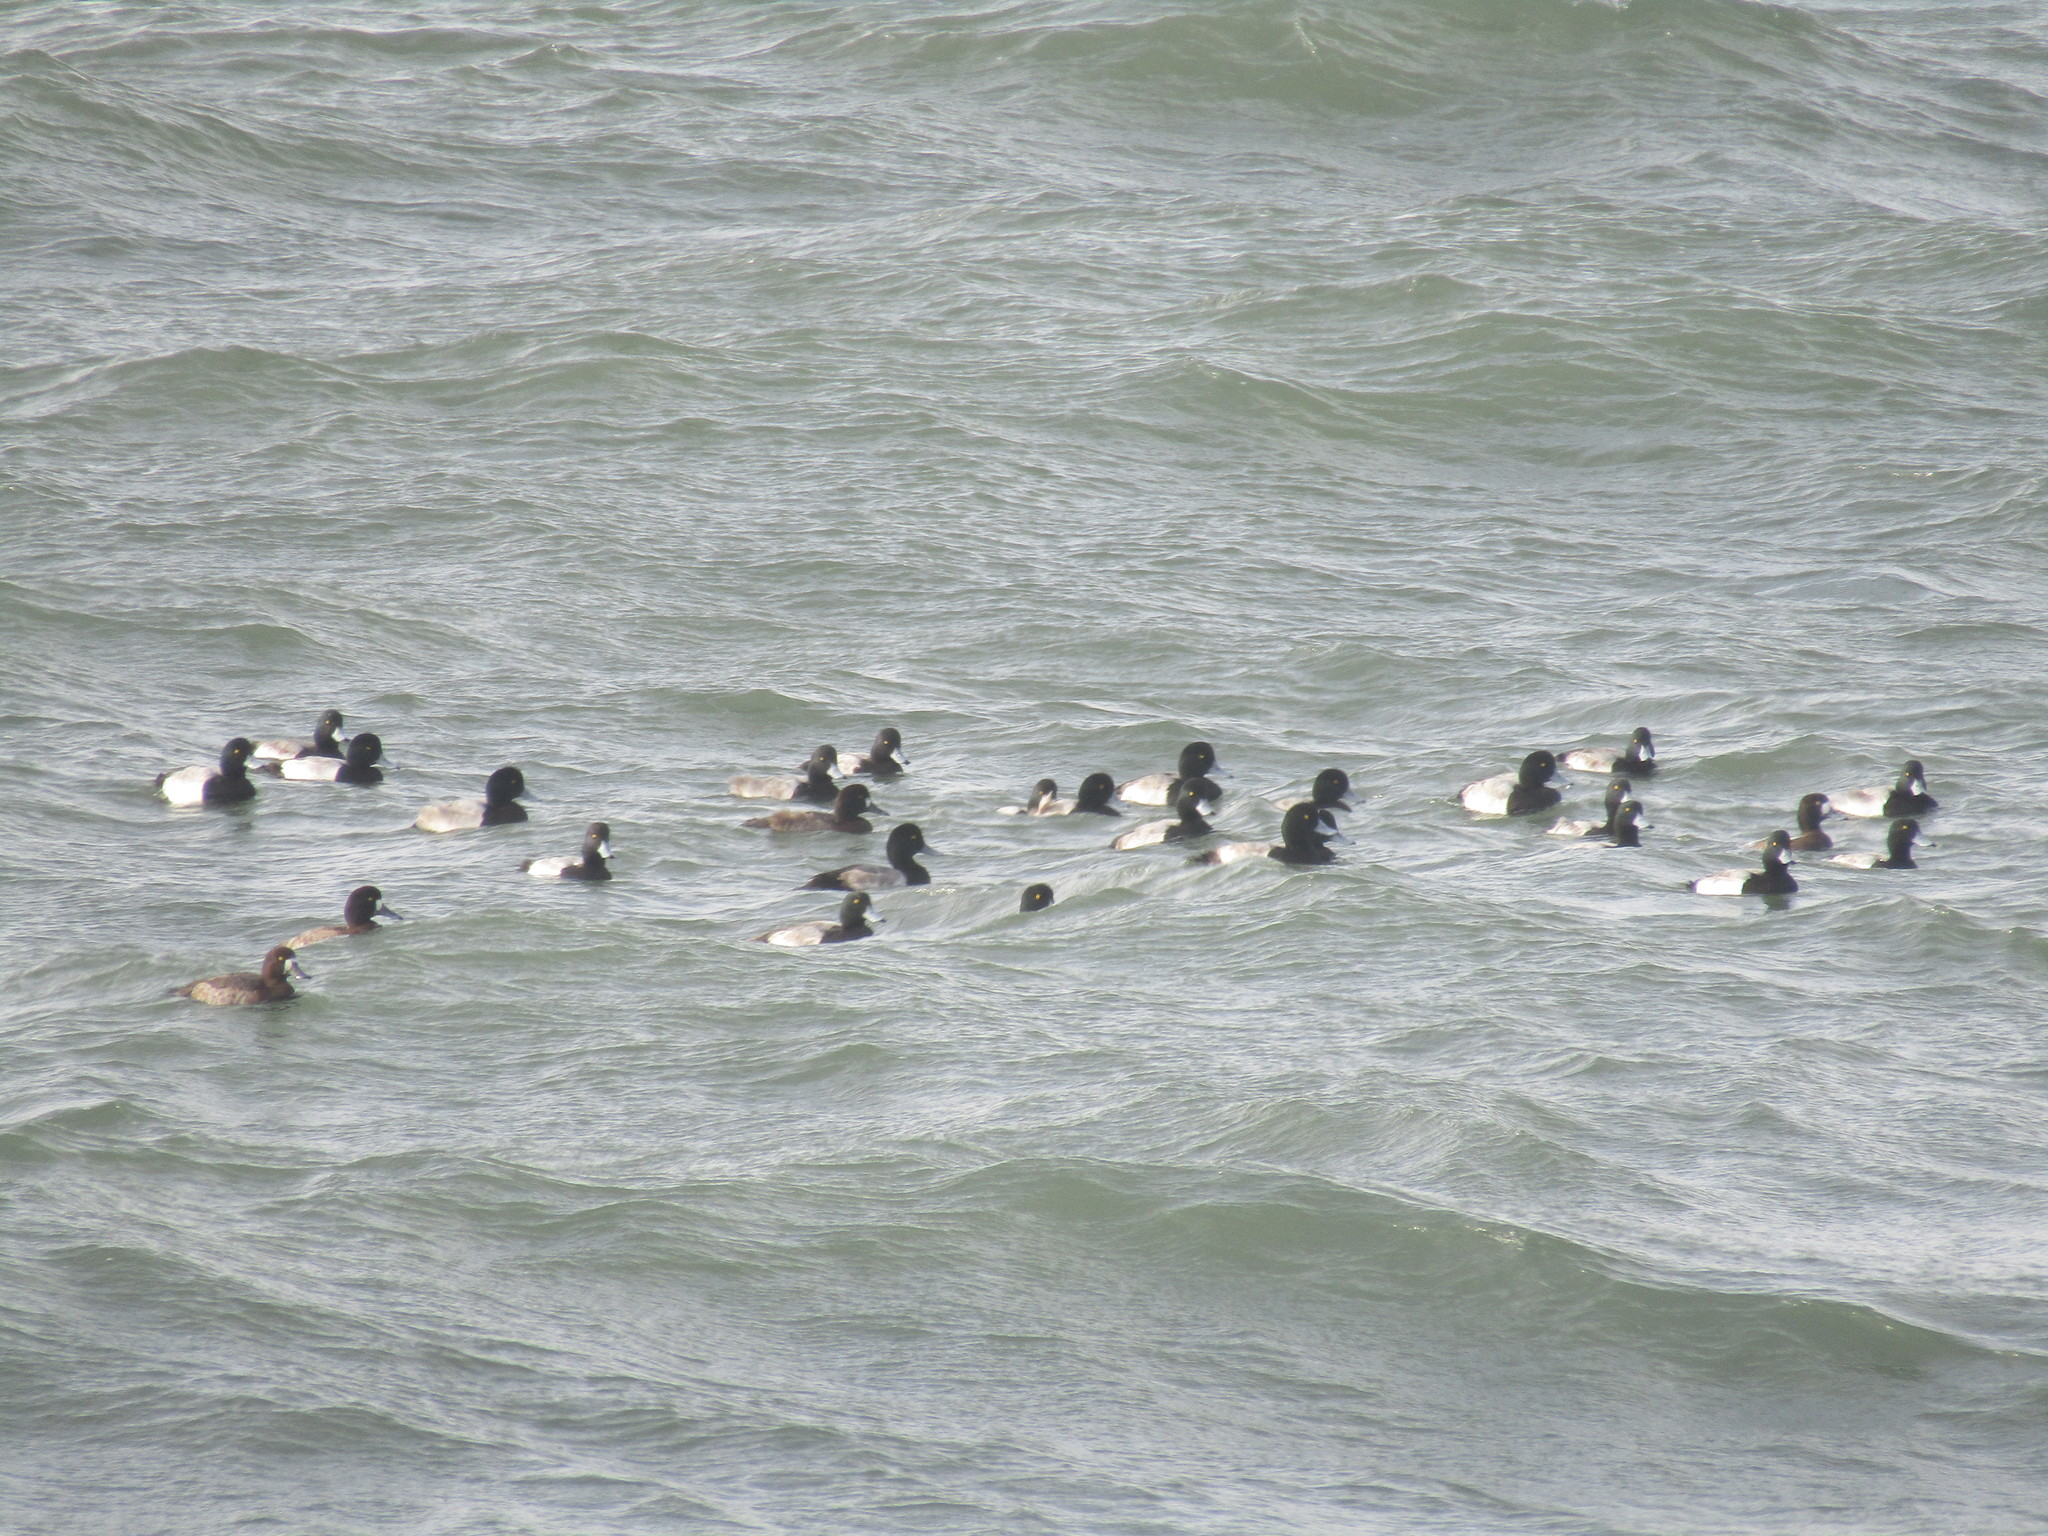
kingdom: Animalia
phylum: Chordata
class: Aves
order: Anseriformes
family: Anatidae
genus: Aythya
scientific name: Aythya marila
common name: Greater scaup
